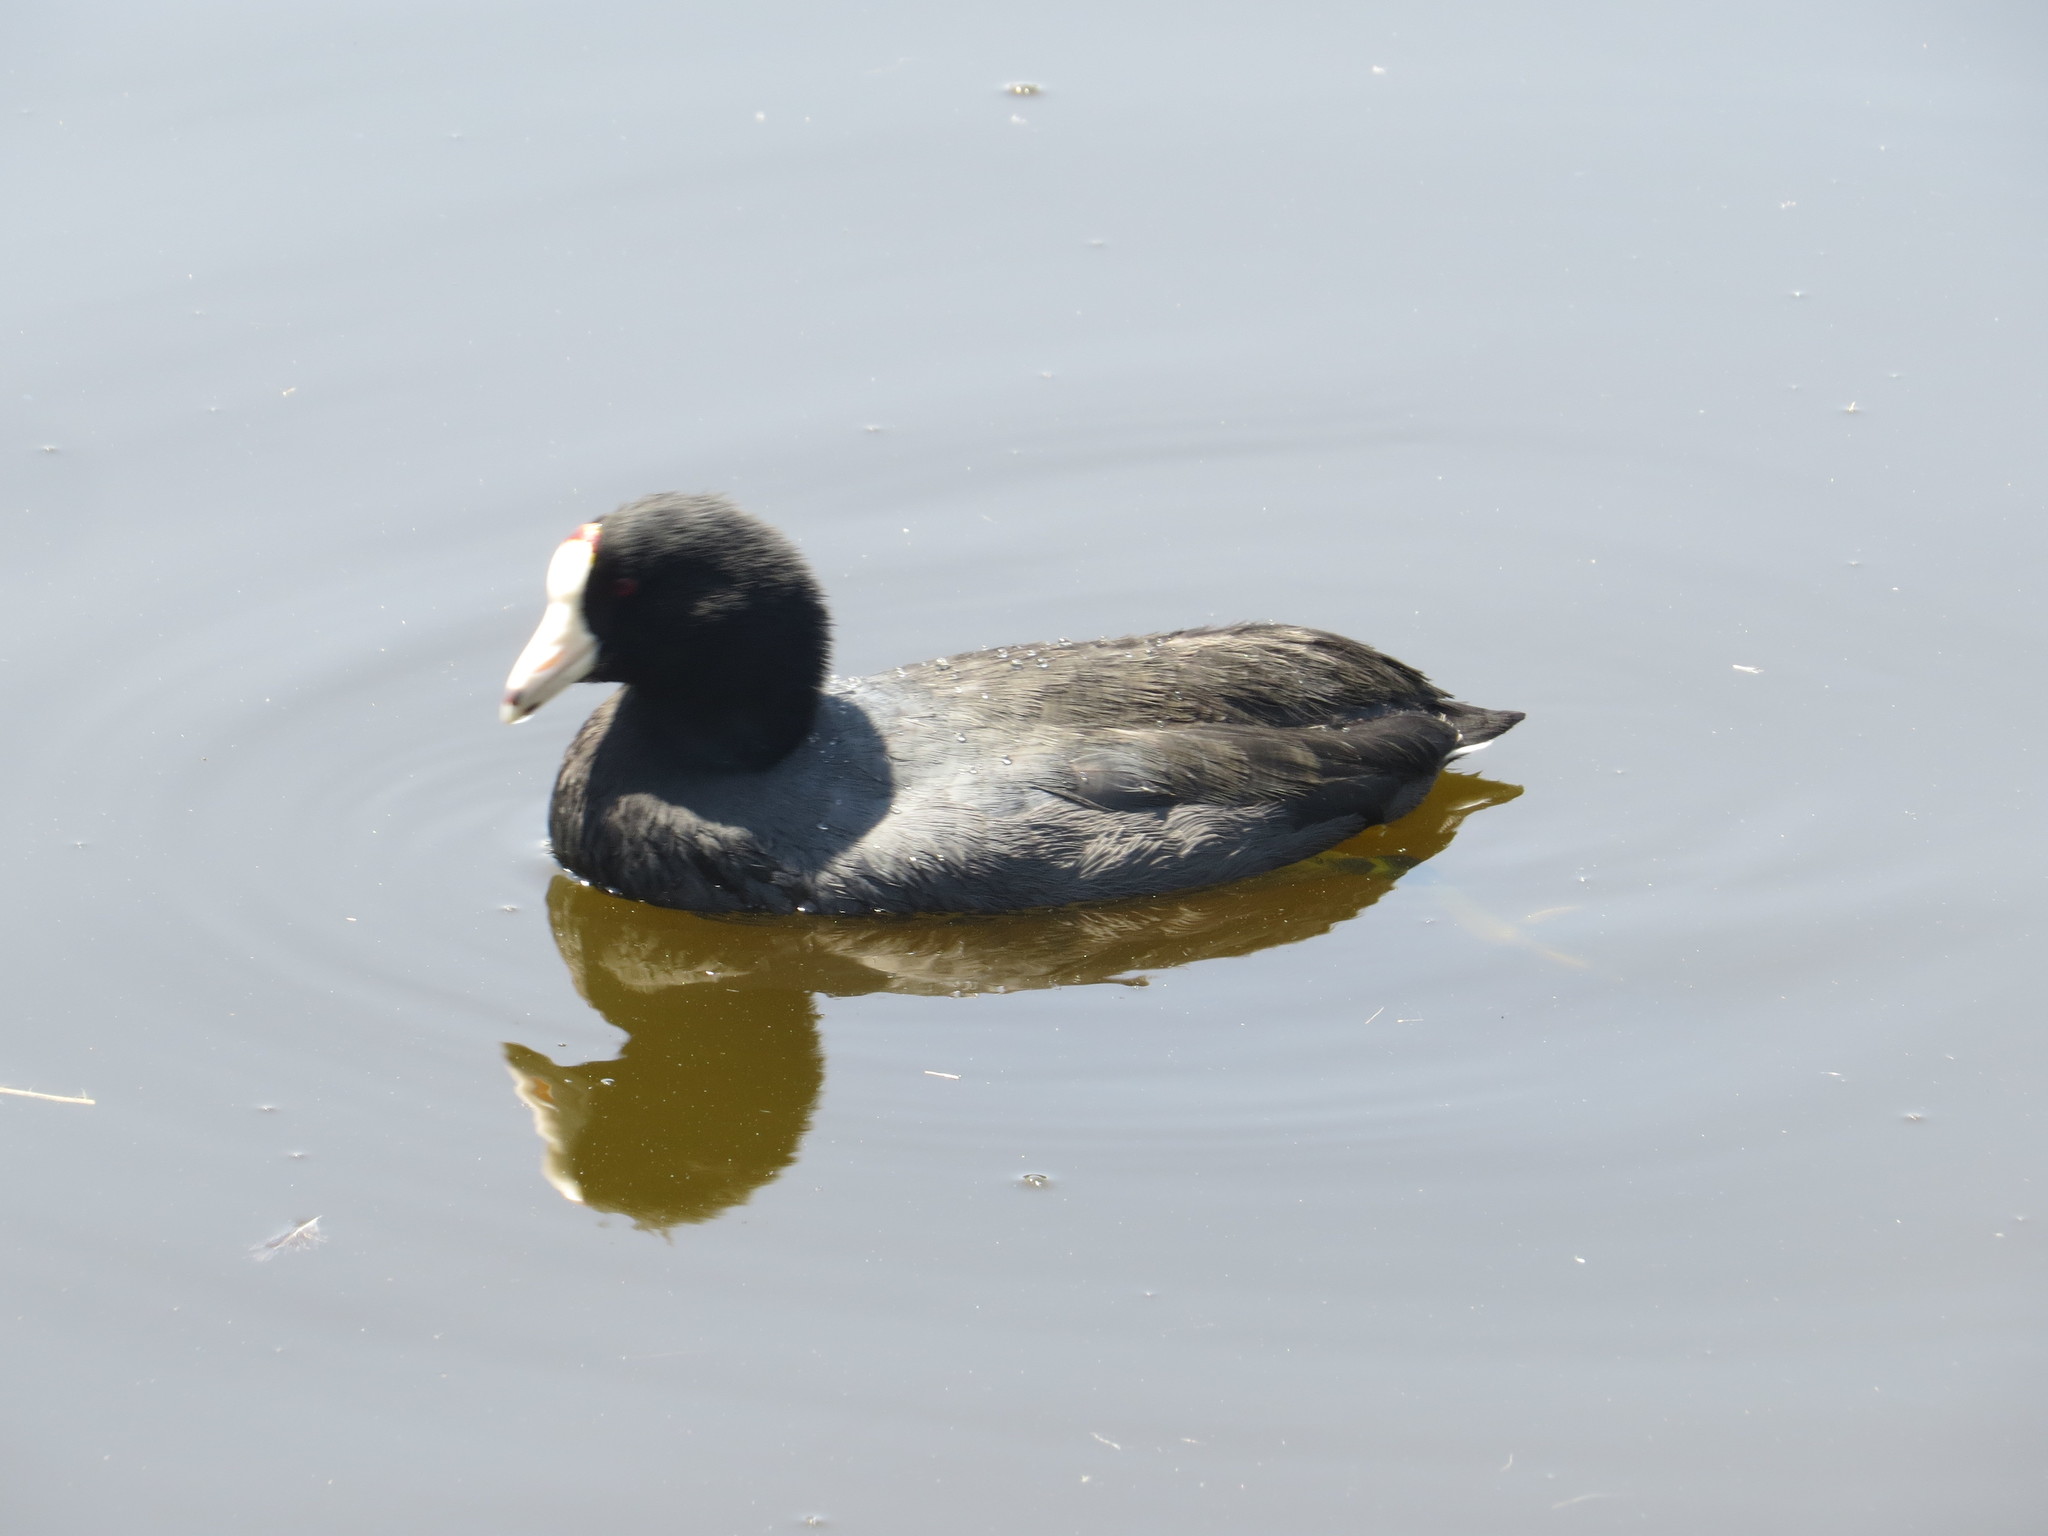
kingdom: Animalia
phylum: Chordata
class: Aves
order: Gruiformes
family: Rallidae
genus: Fulica
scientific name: Fulica americana
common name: American coot
